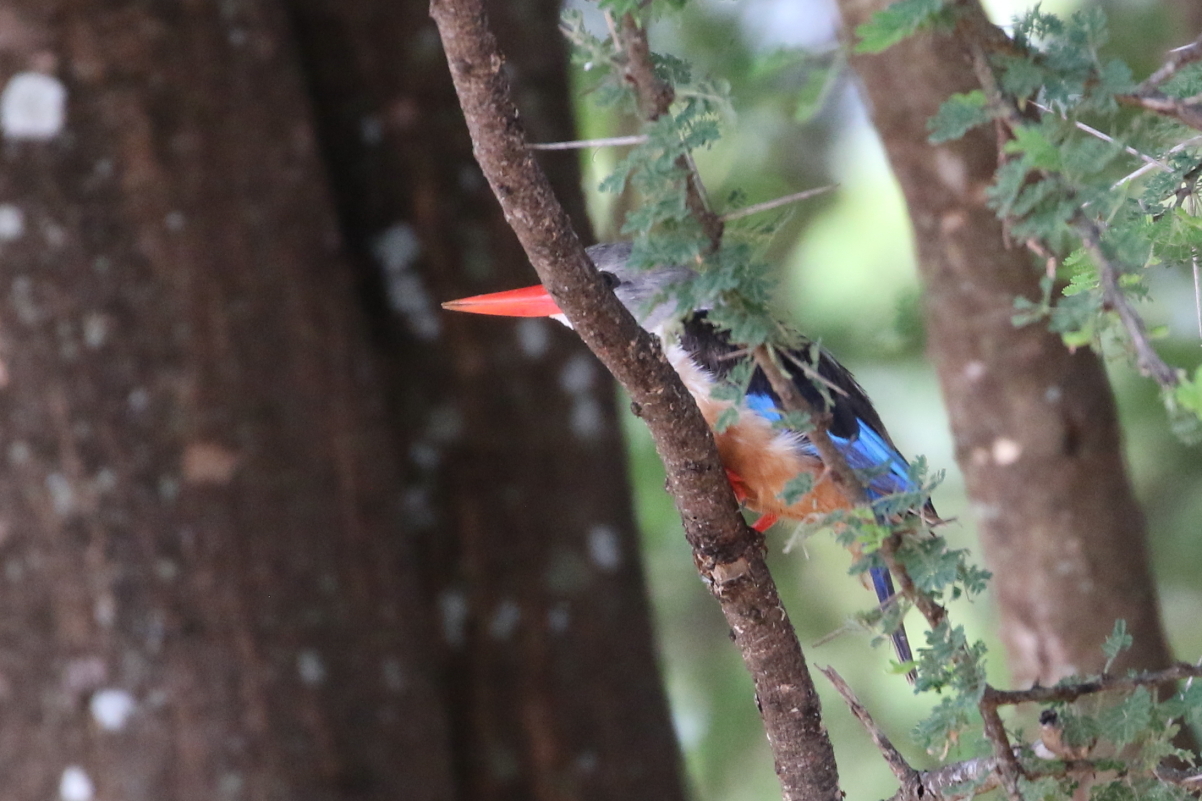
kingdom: Animalia
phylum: Chordata
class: Aves
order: Coraciiformes
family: Alcedinidae
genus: Halcyon
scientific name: Halcyon leucocephala
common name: Grey-headed kingfisher
